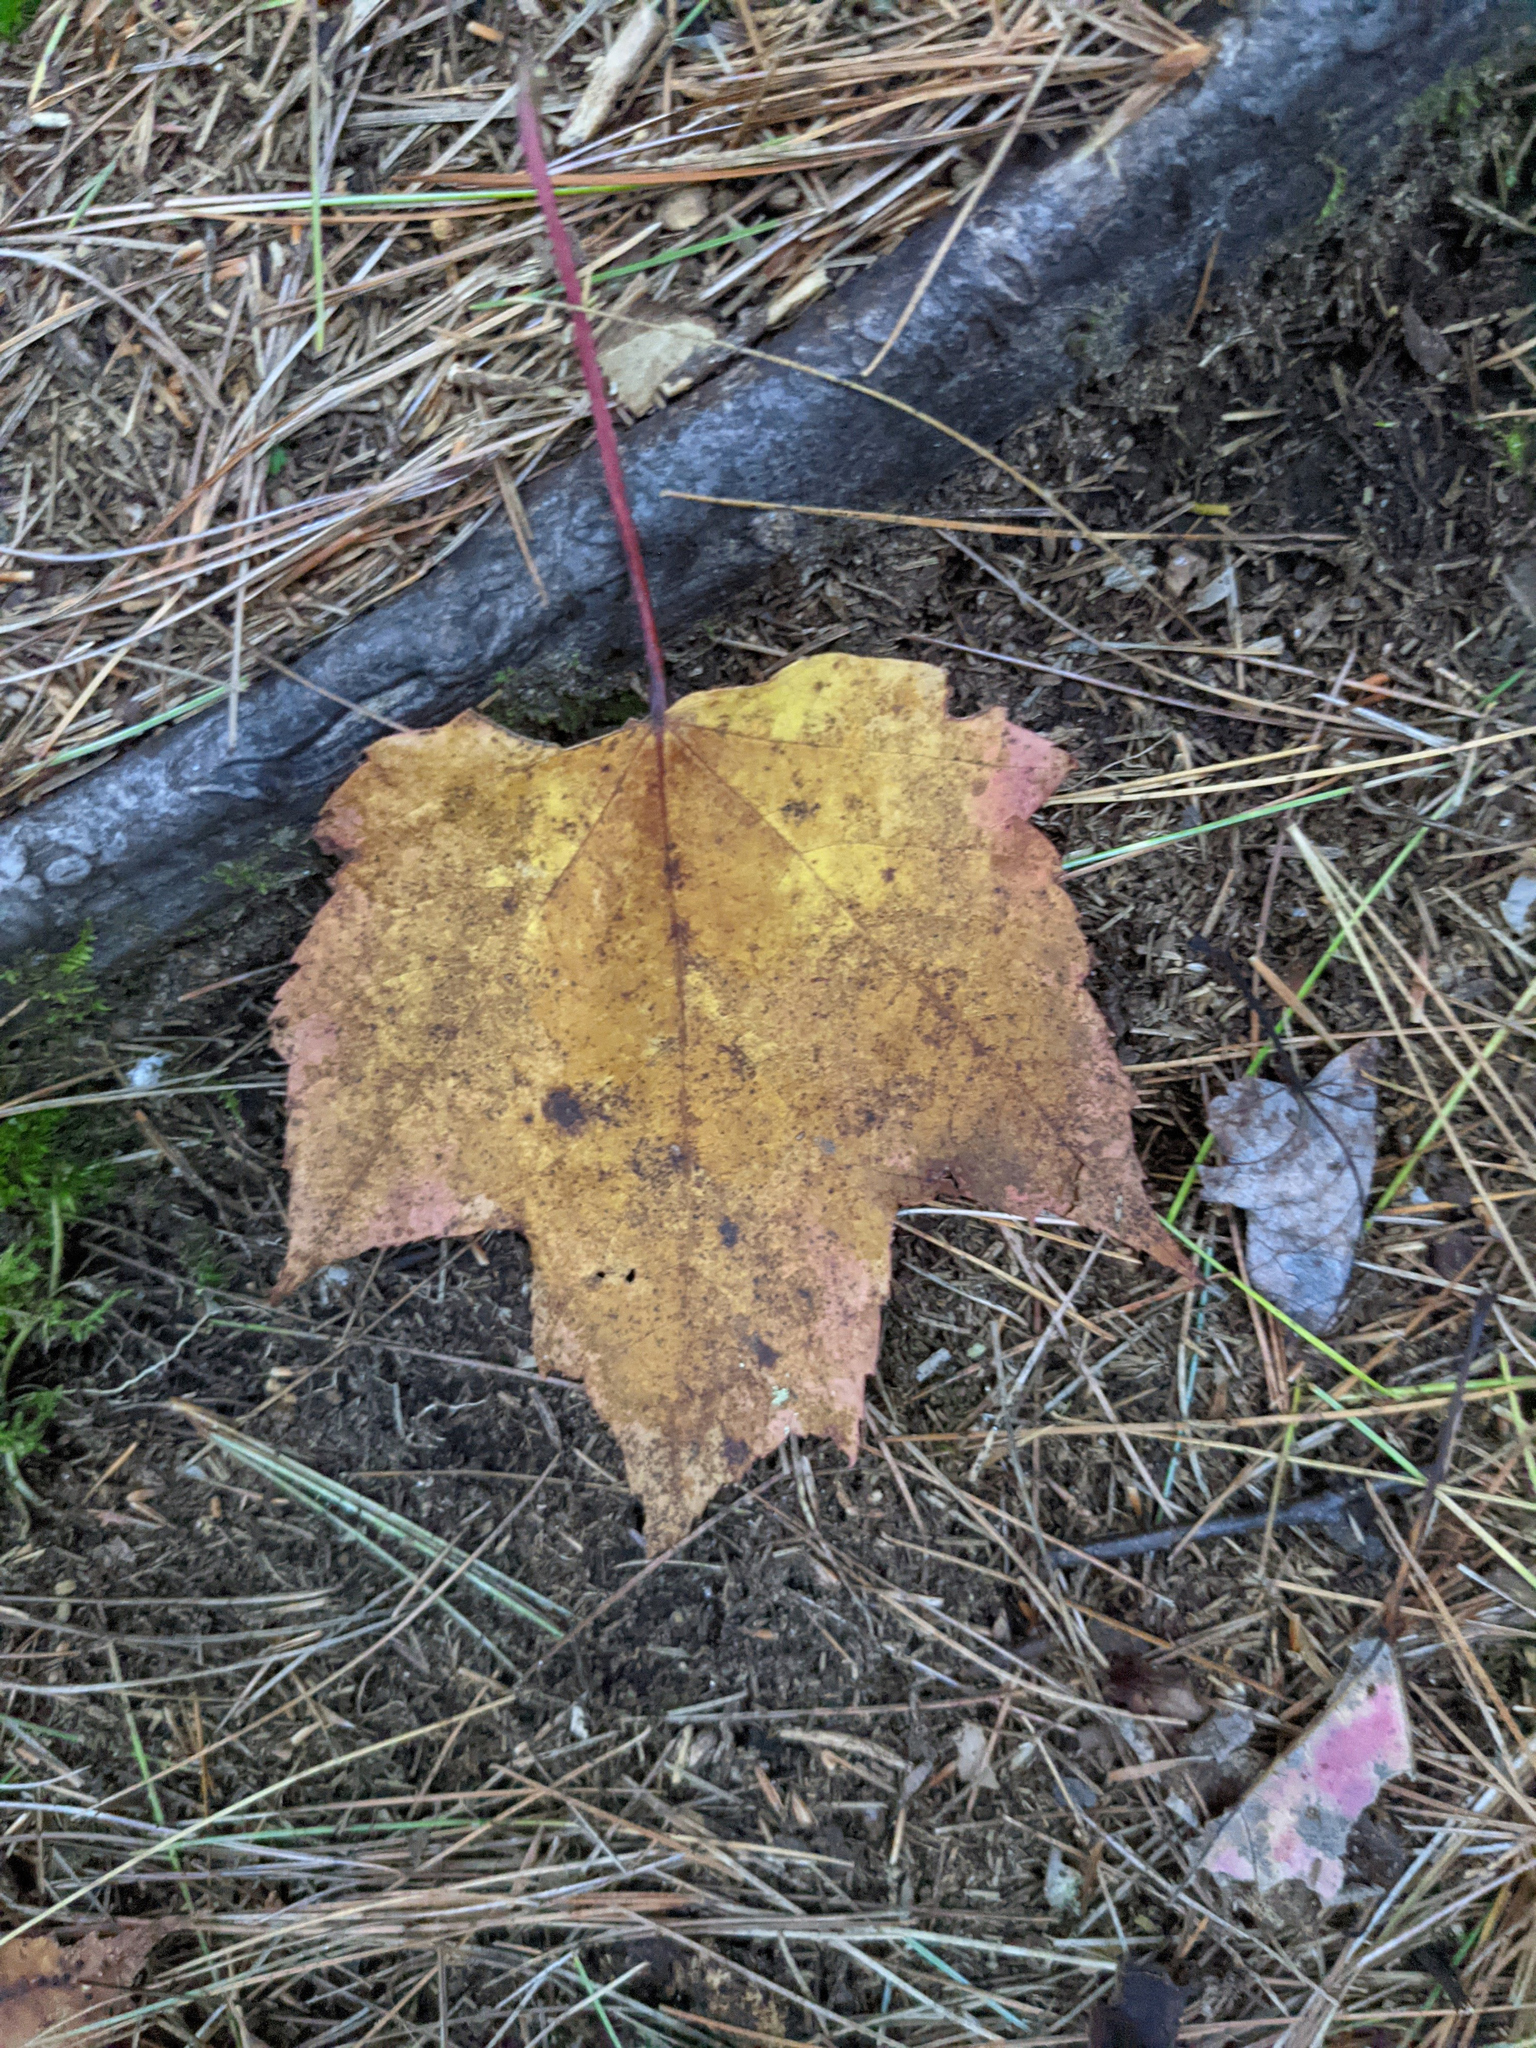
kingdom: Plantae
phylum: Tracheophyta
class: Magnoliopsida
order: Sapindales
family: Sapindaceae
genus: Acer
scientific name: Acer rubrum
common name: Red maple
